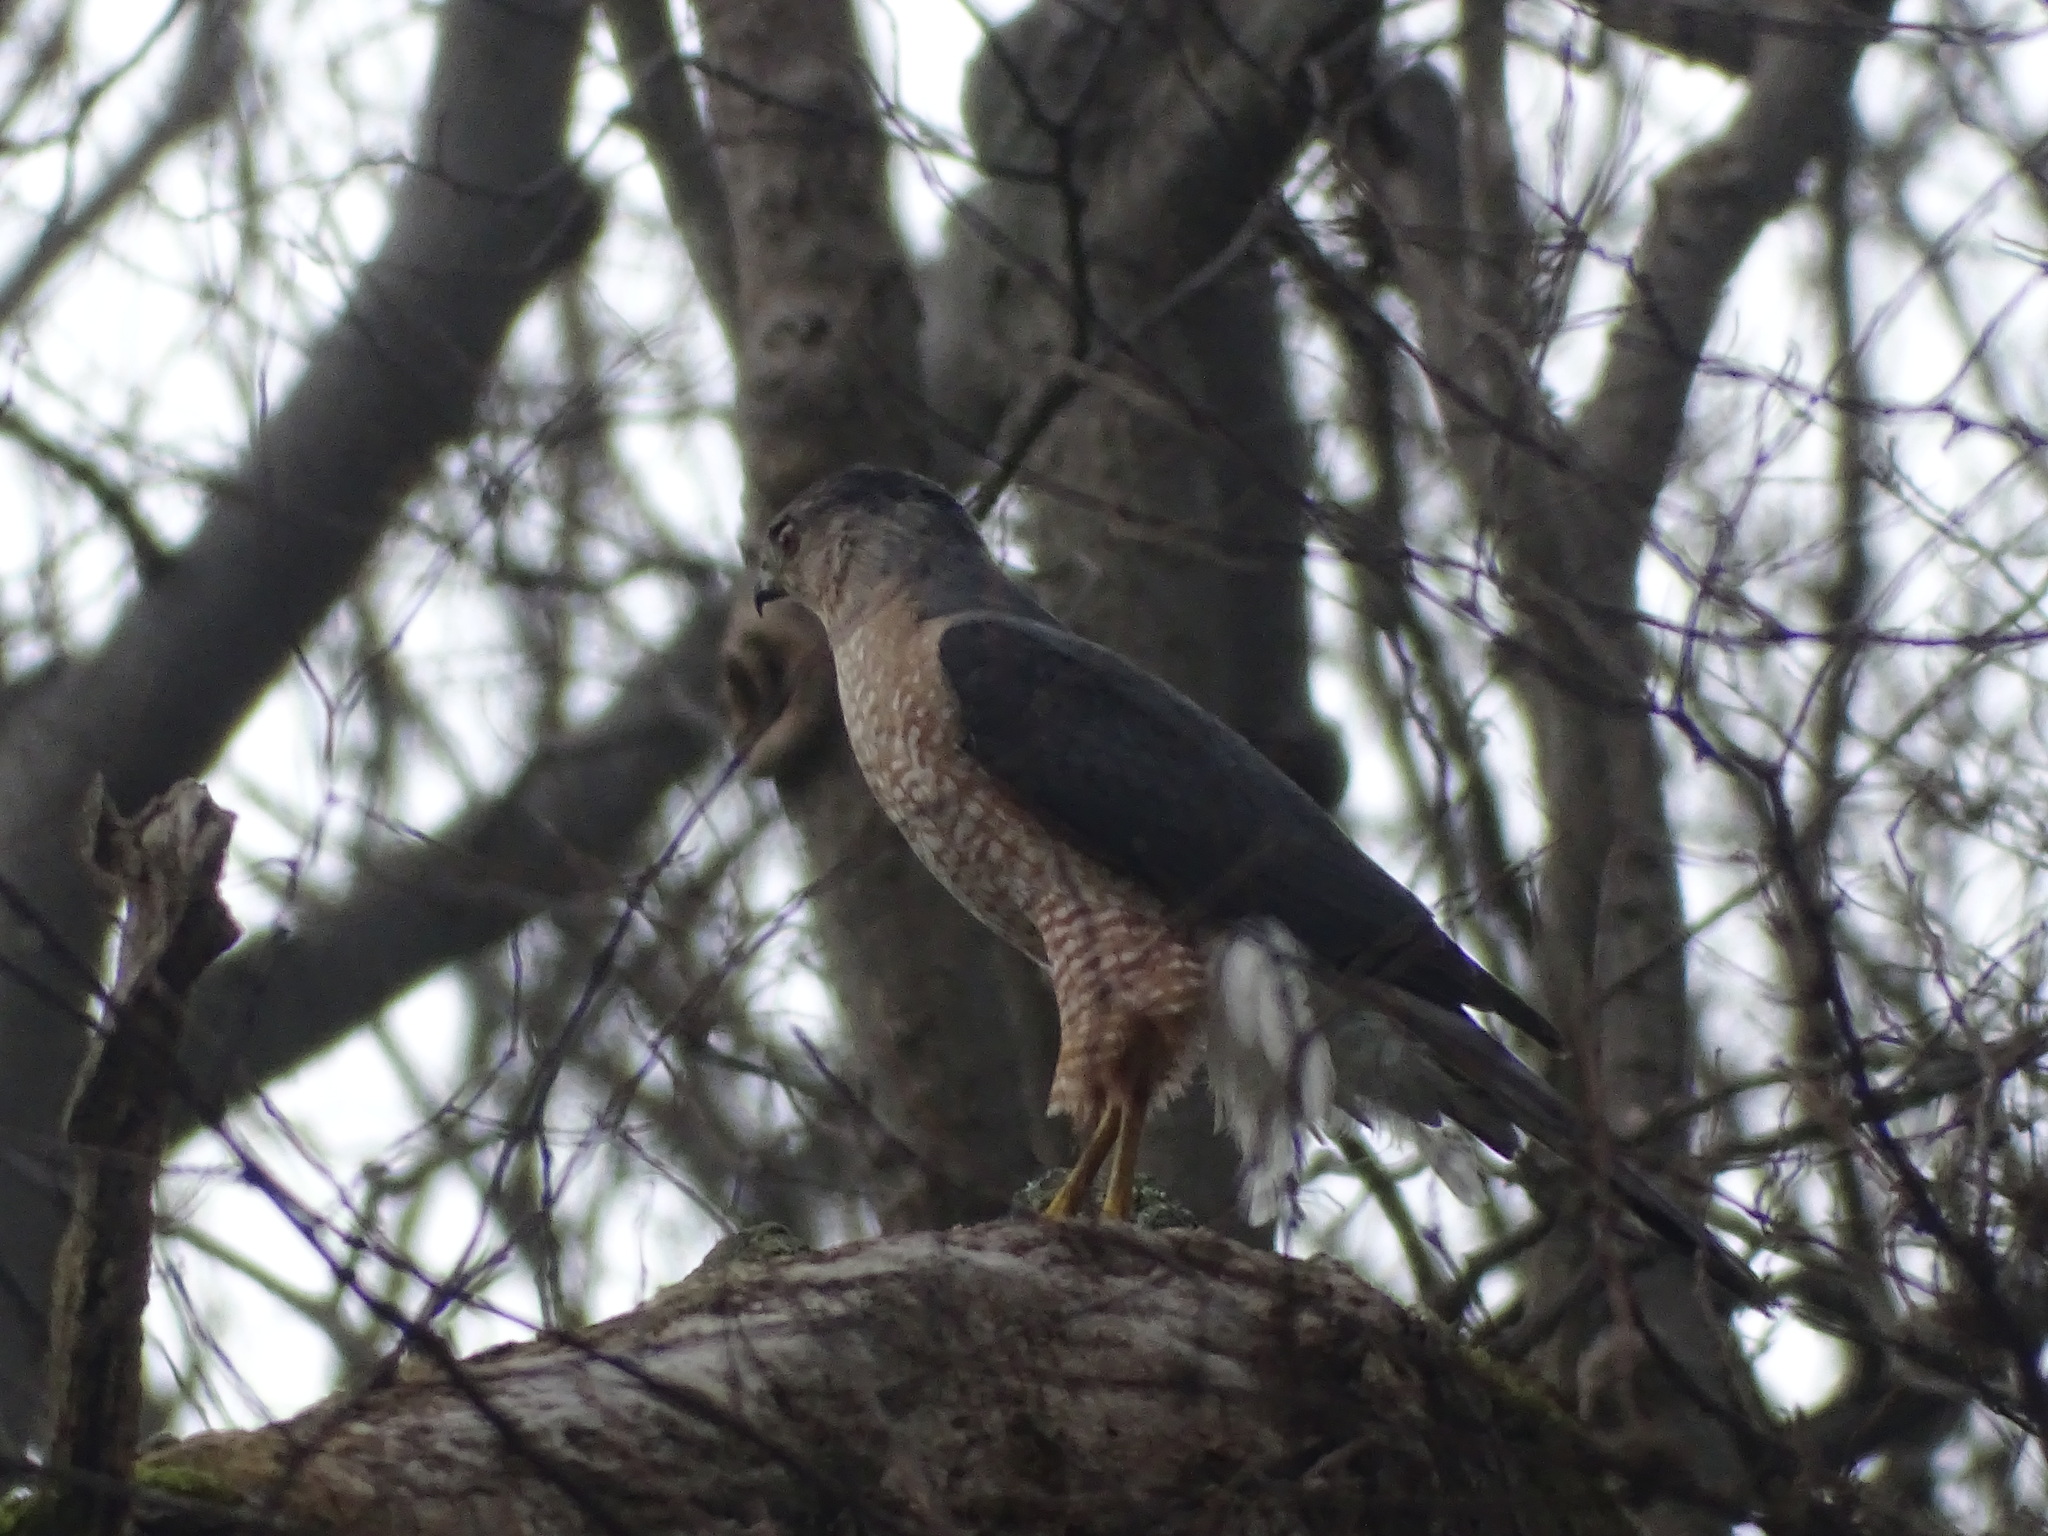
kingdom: Animalia
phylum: Chordata
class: Aves
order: Accipitriformes
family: Accipitridae
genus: Accipiter
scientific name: Accipiter cooperii
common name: Cooper's hawk
